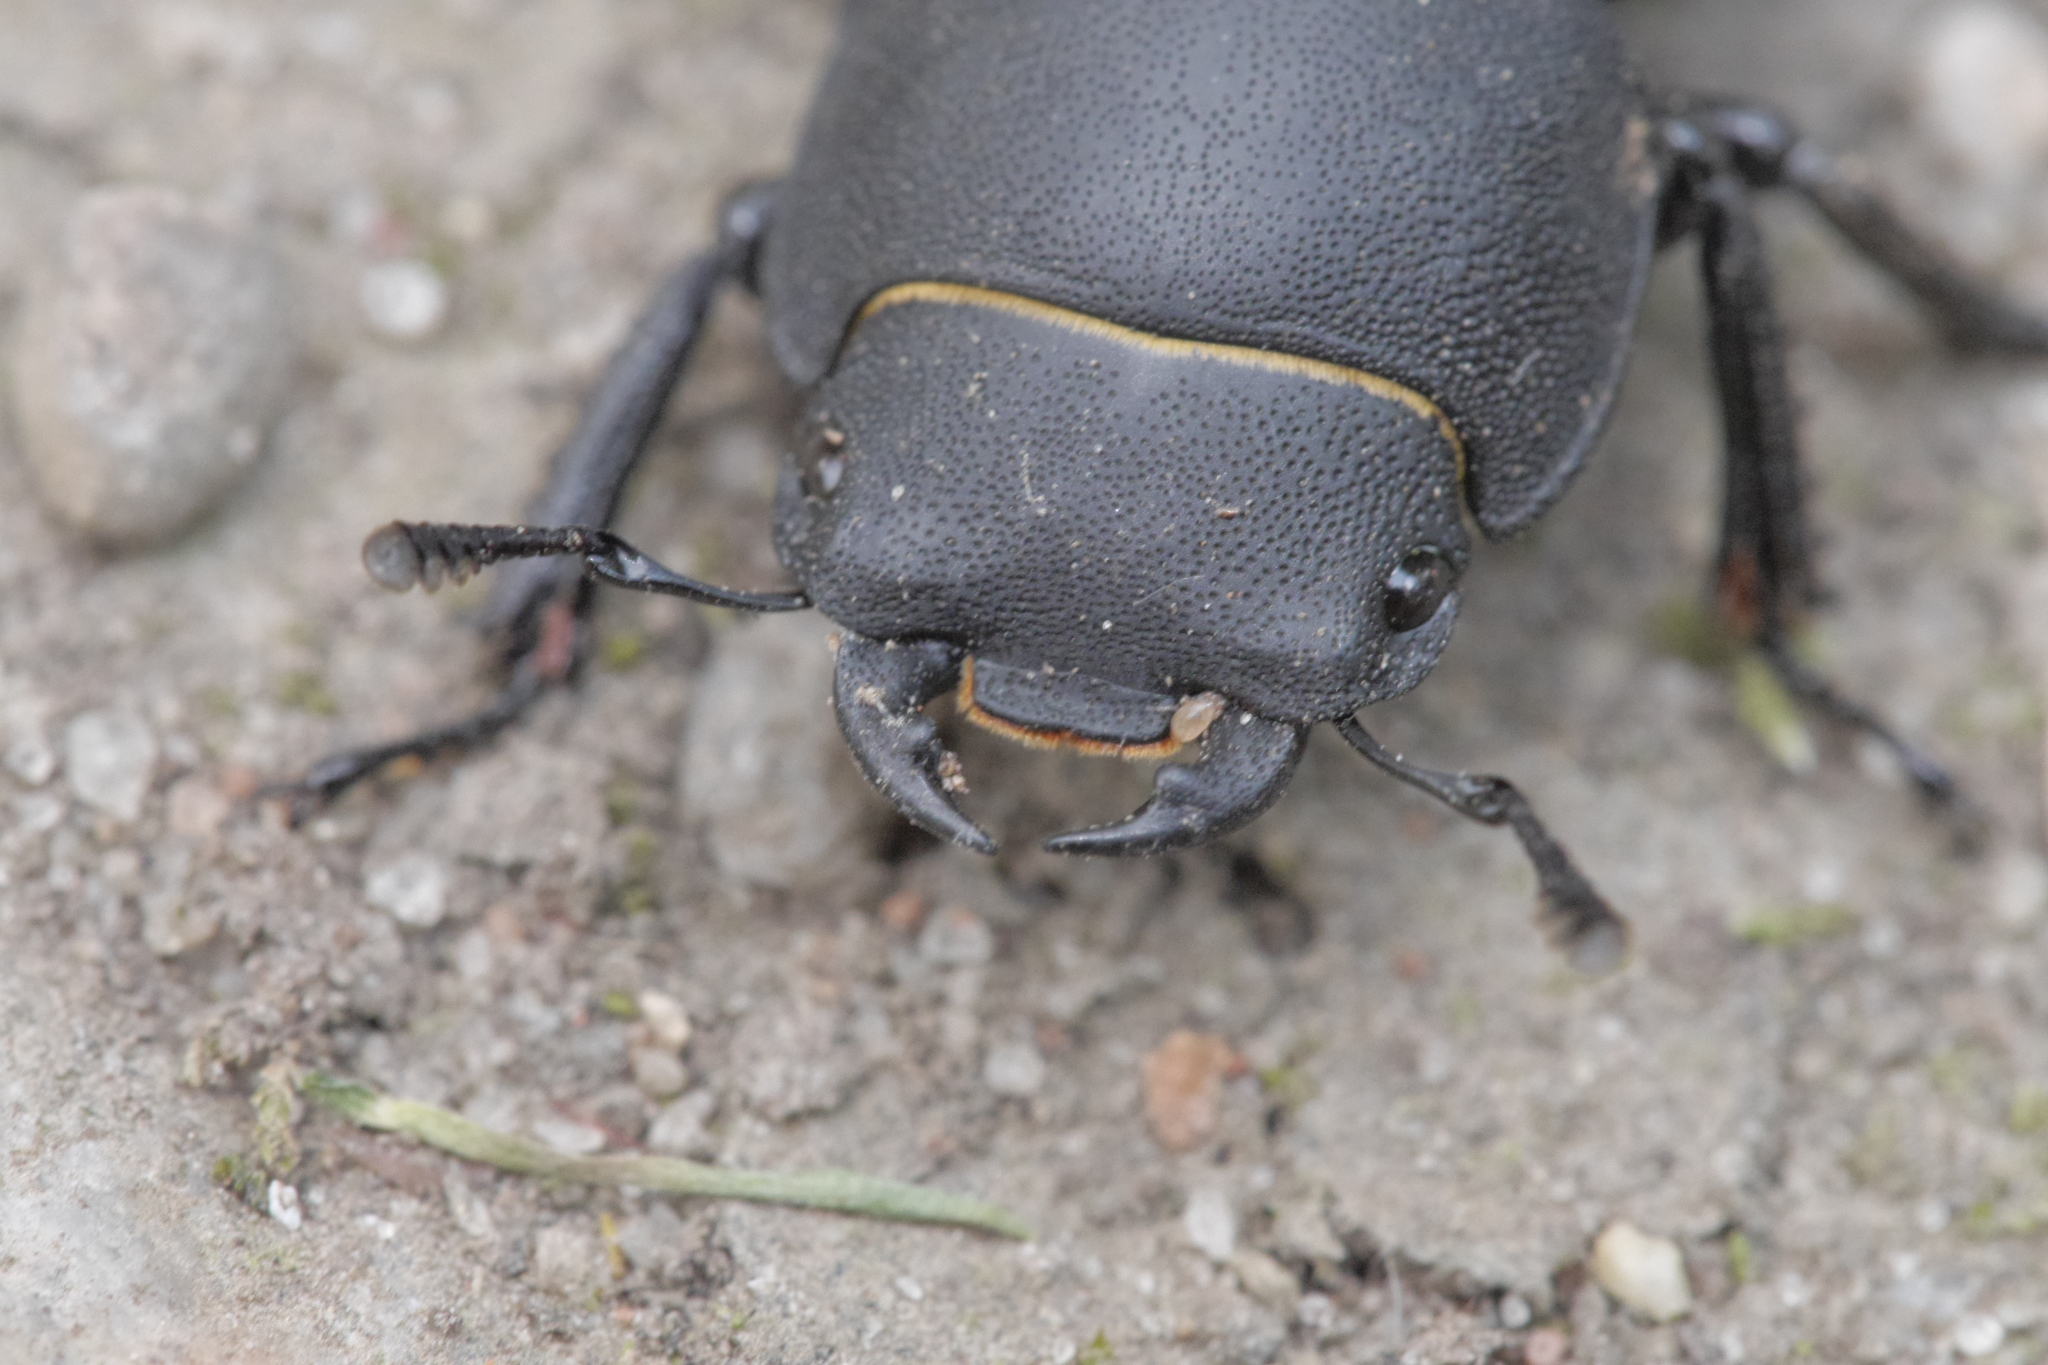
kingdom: Animalia
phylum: Arthropoda
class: Insecta
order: Coleoptera
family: Lucanidae
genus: Dorcus
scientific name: Dorcus parallelipipedus
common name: Lesser stag beetle
